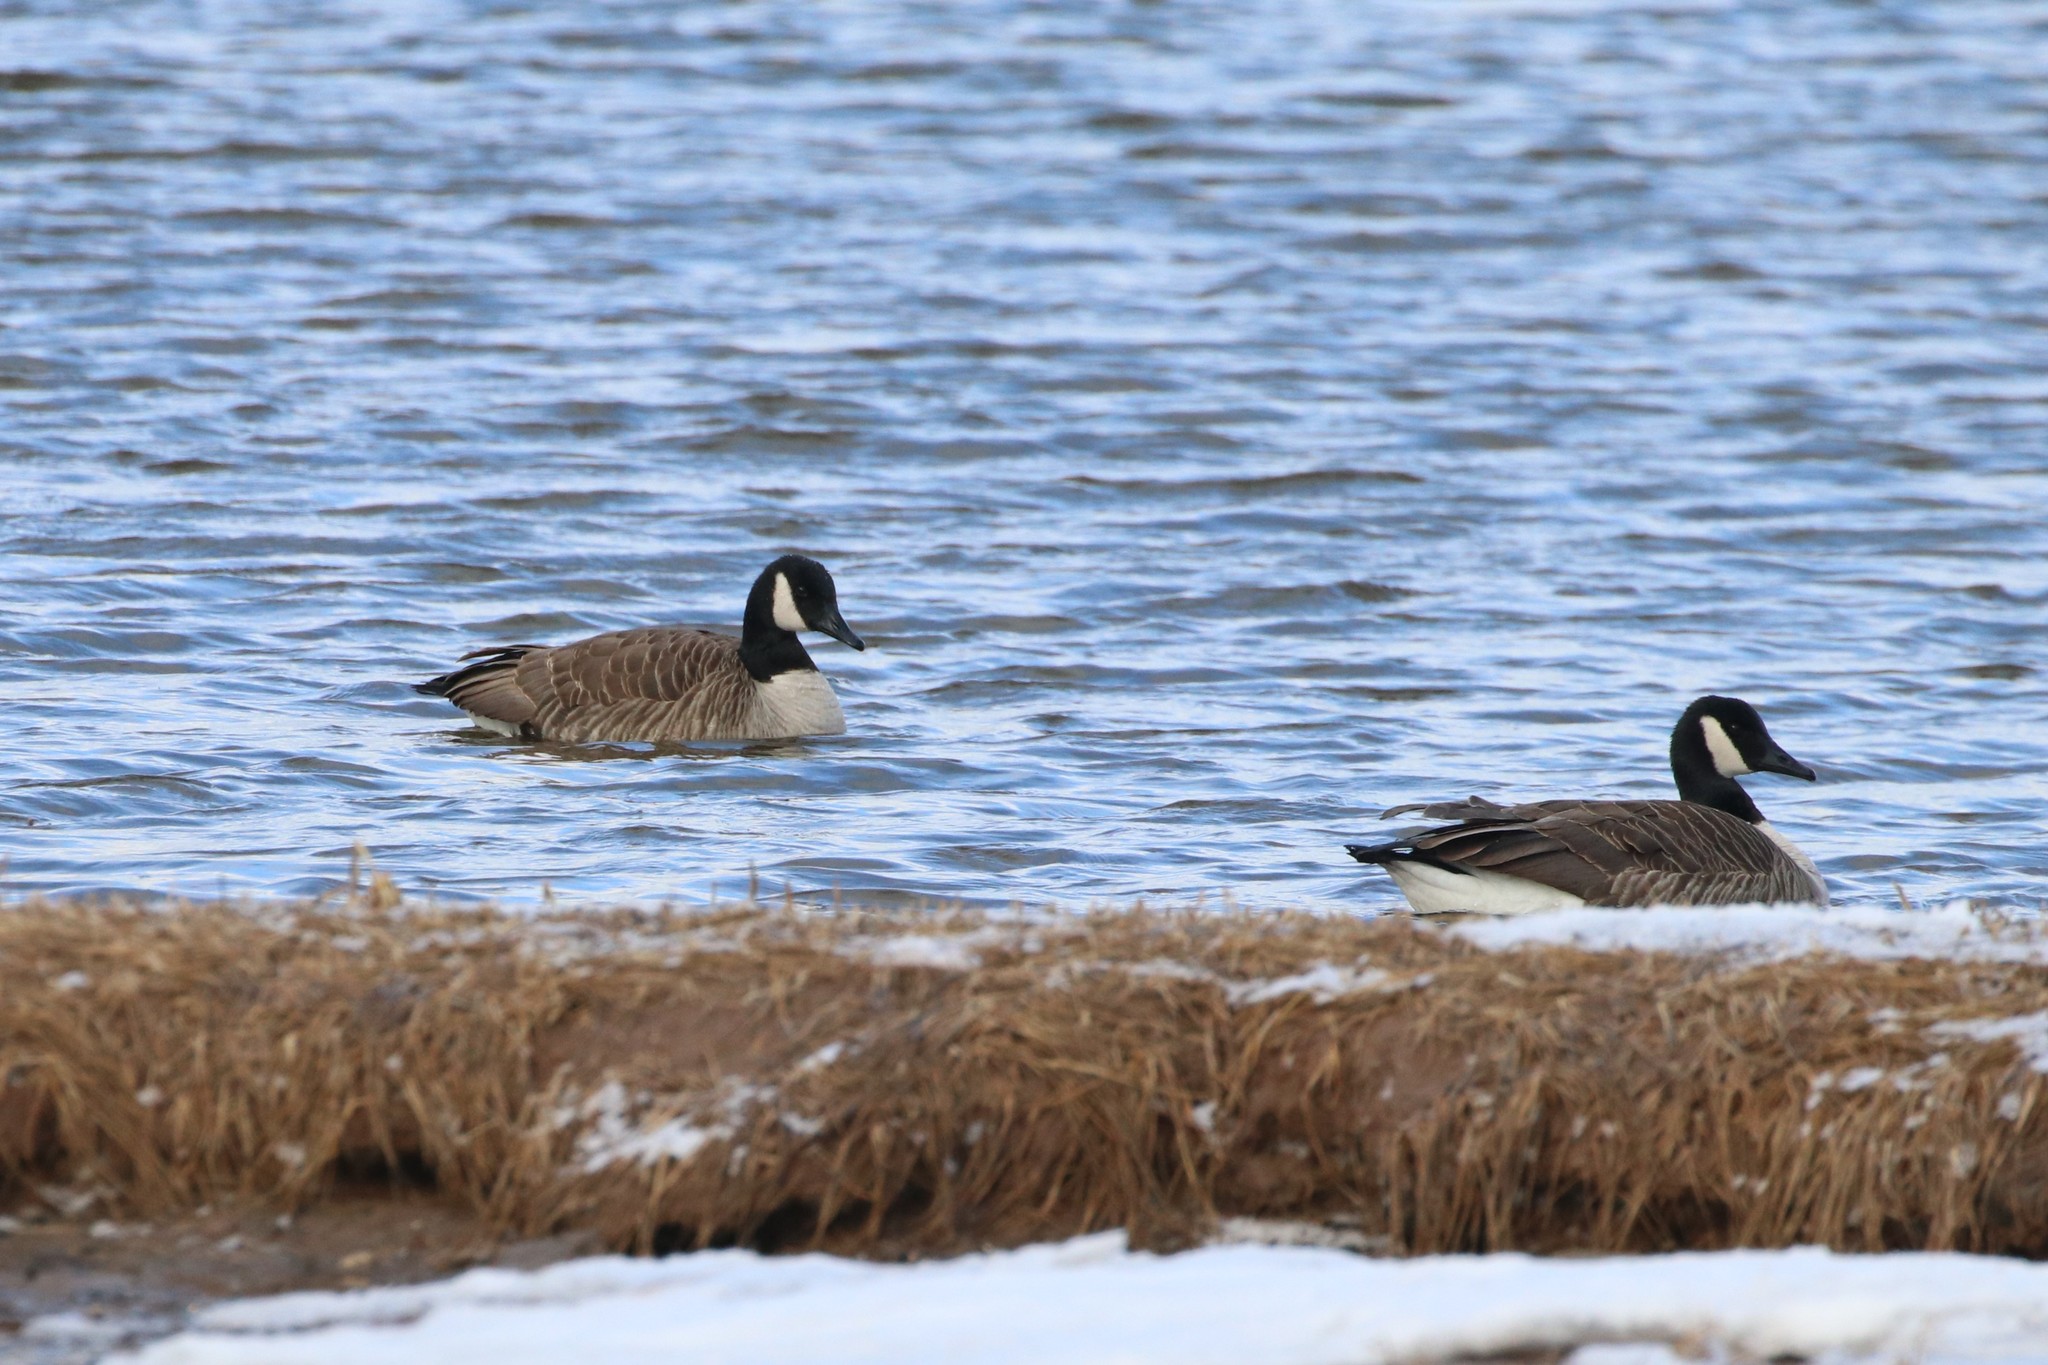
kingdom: Animalia
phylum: Chordata
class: Aves
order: Anseriformes
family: Anatidae
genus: Branta
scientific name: Branta canadensis
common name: Canada goose
